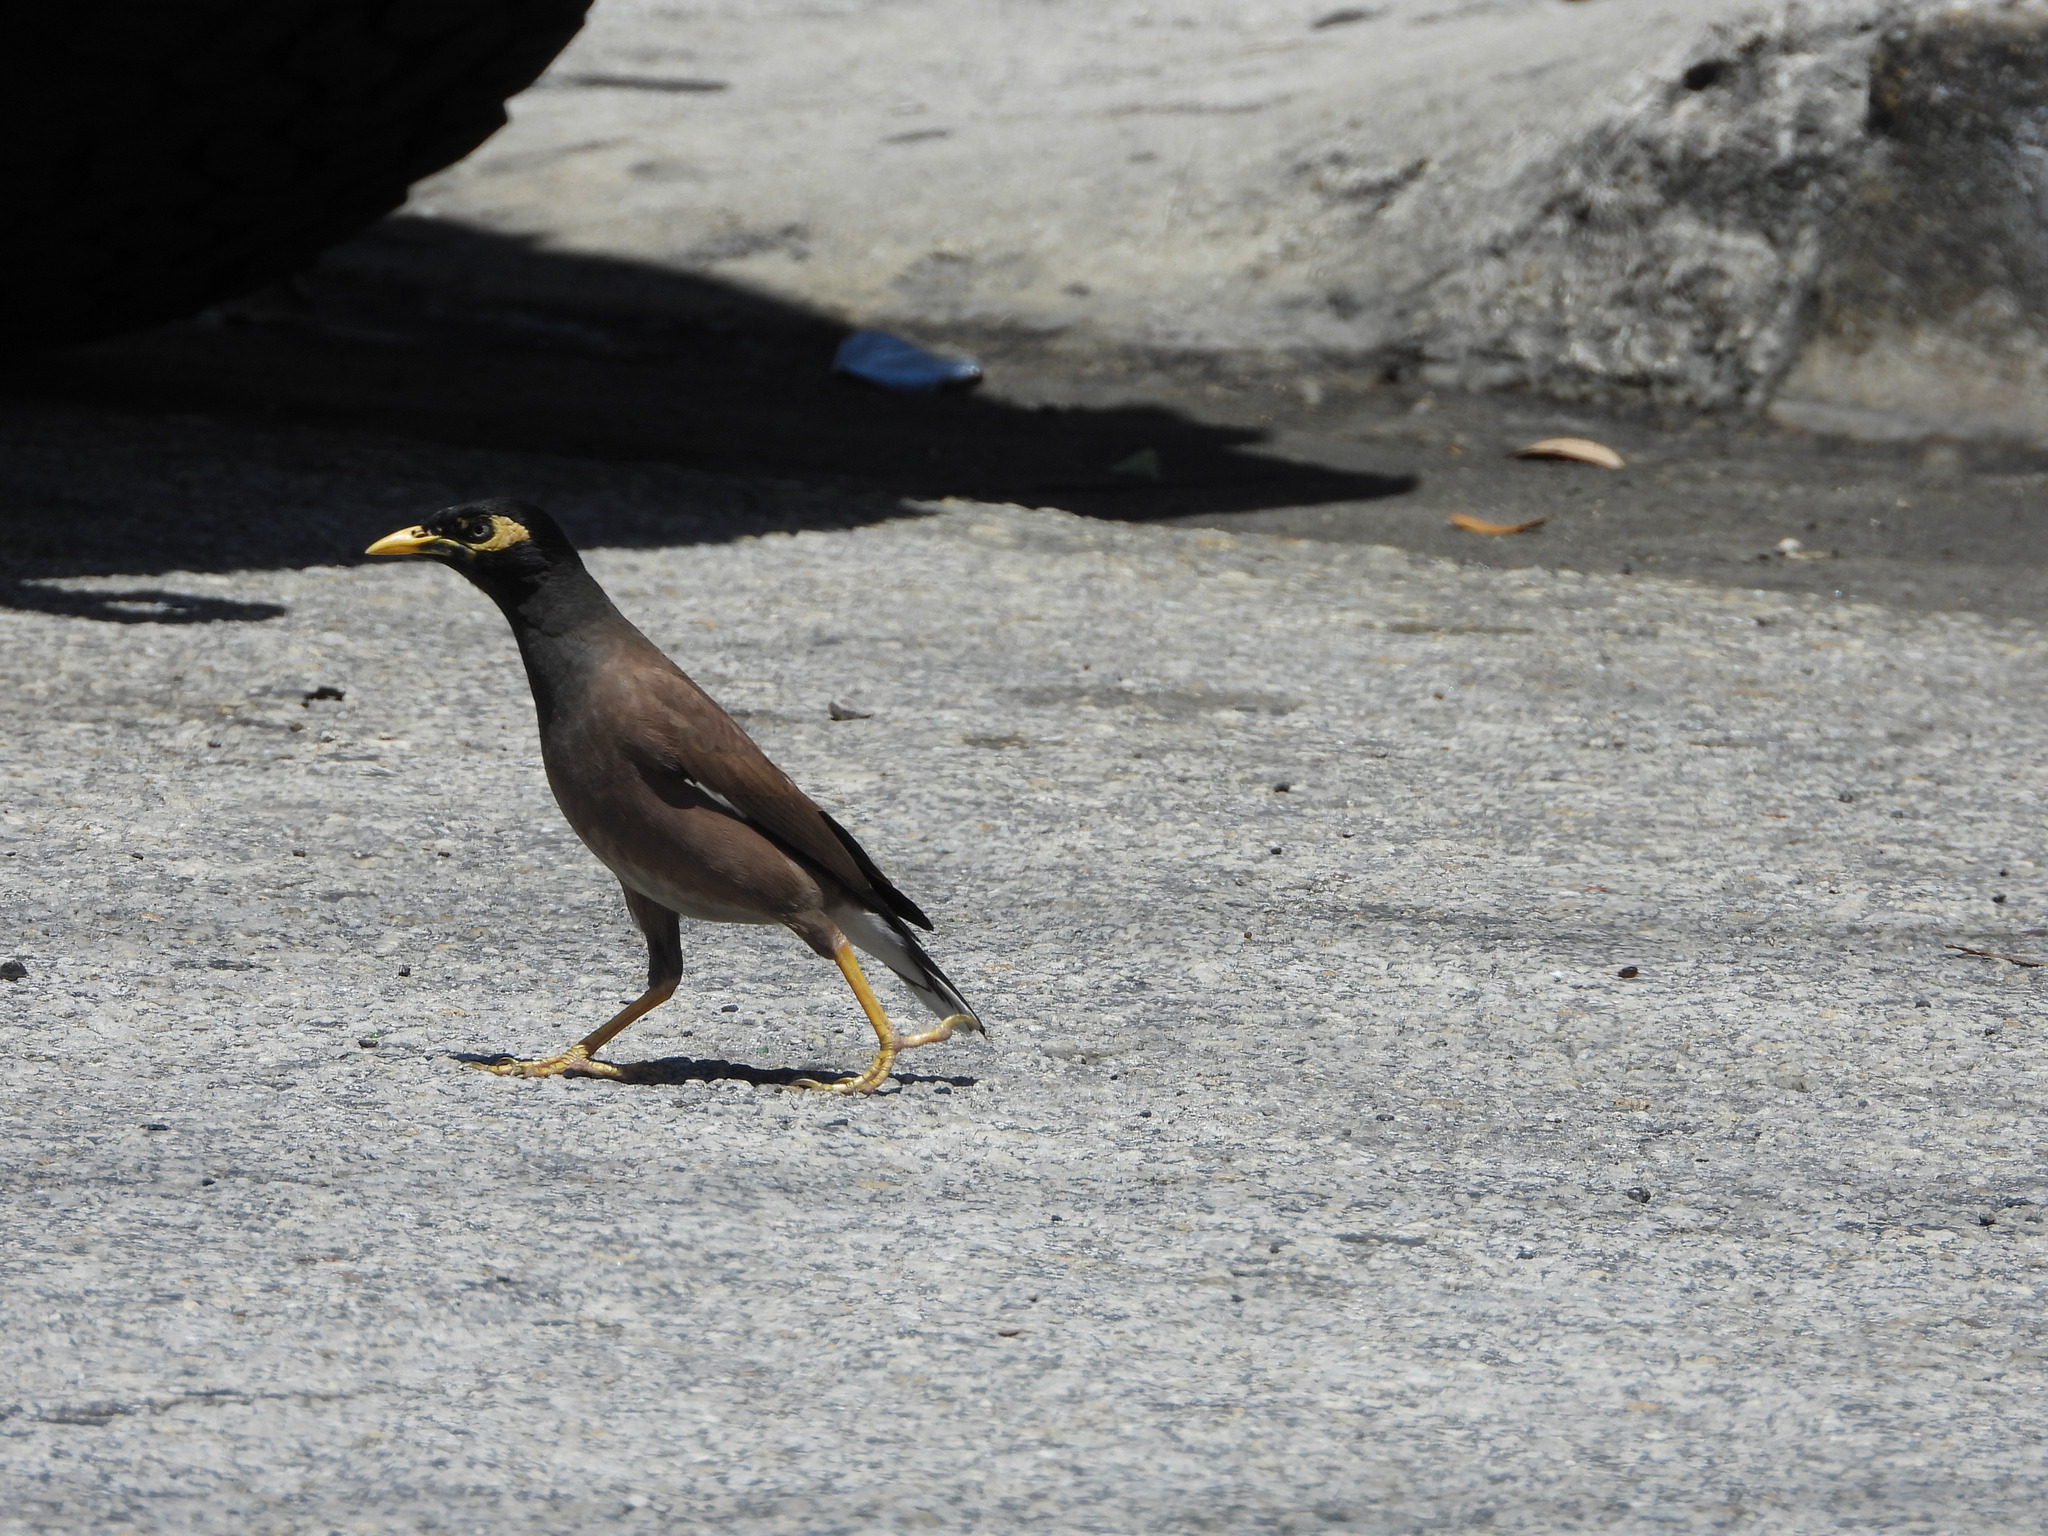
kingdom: Animalia
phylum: Chordata
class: Aves
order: Passeriformes
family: Sturnidae
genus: Acridotheres
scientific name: Acridotheres tristis
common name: Common myna
